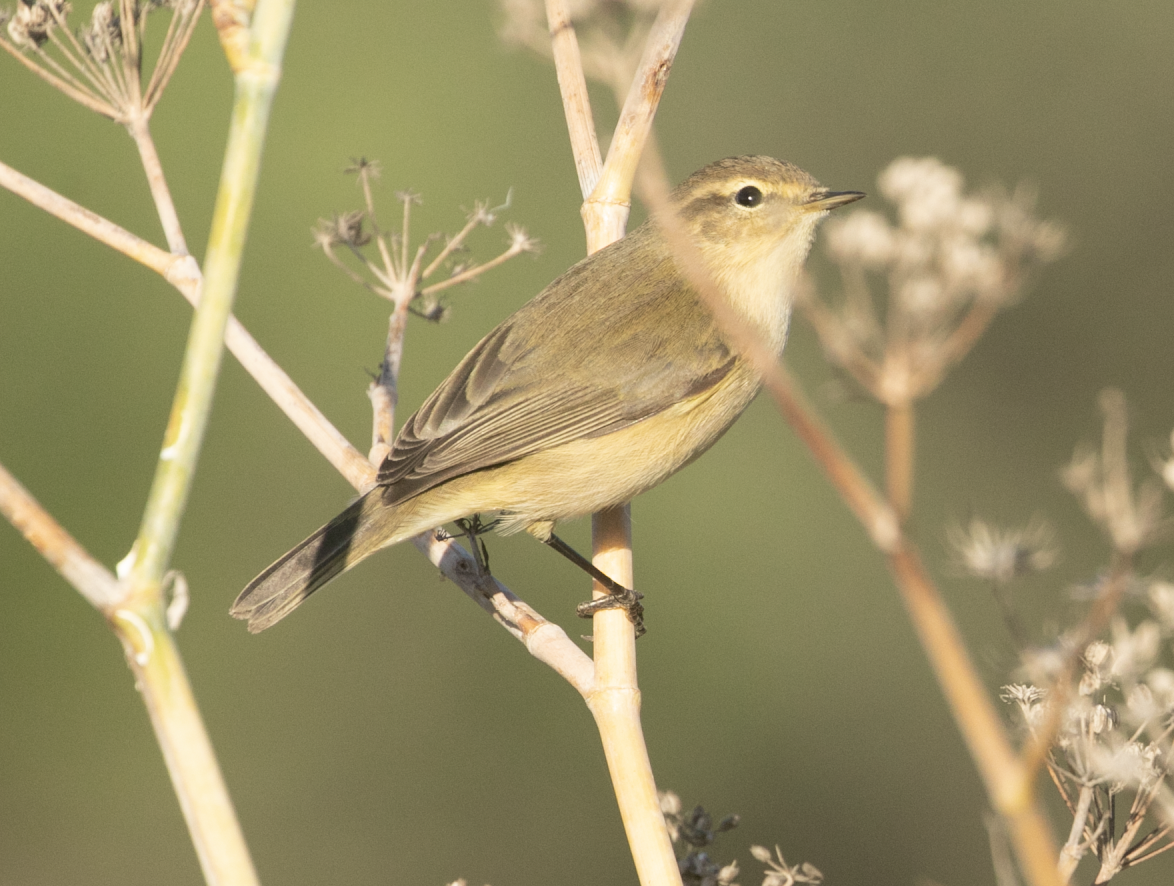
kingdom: Animalia
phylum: Chordata
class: Aves
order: Passeriformes
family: Phylloscopidae
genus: Phylloscopus
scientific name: Phylloscopus collybita
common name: Common chiffchaff
